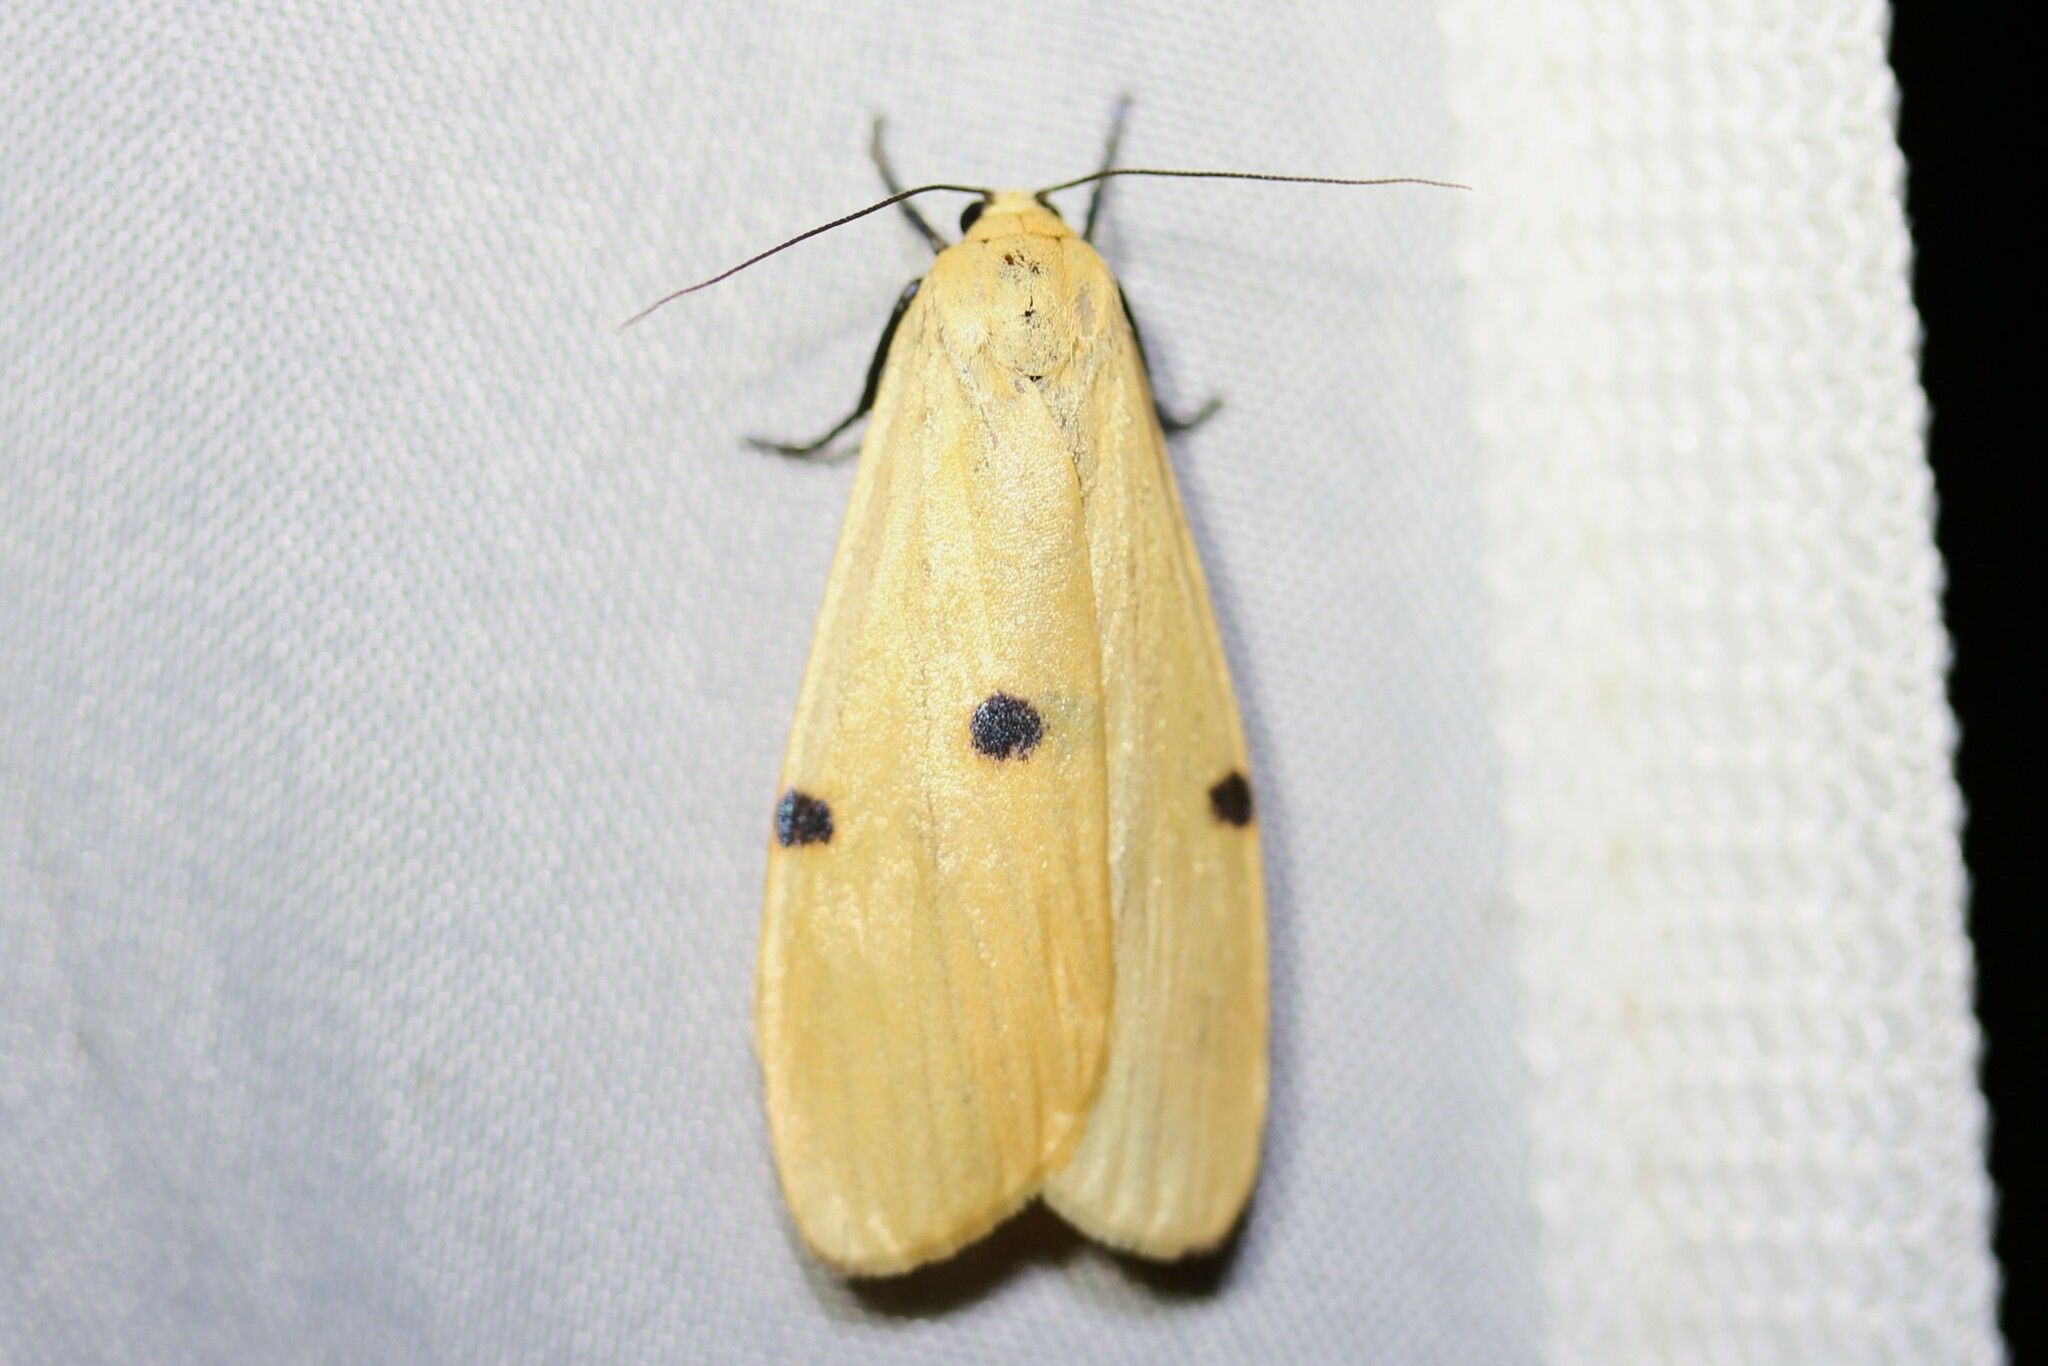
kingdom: Animalia
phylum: Arthropoda
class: Insecta
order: Lepidoptera
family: Erebidae
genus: Lithosia
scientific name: Lithosia quadra
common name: Four-spotted footman
